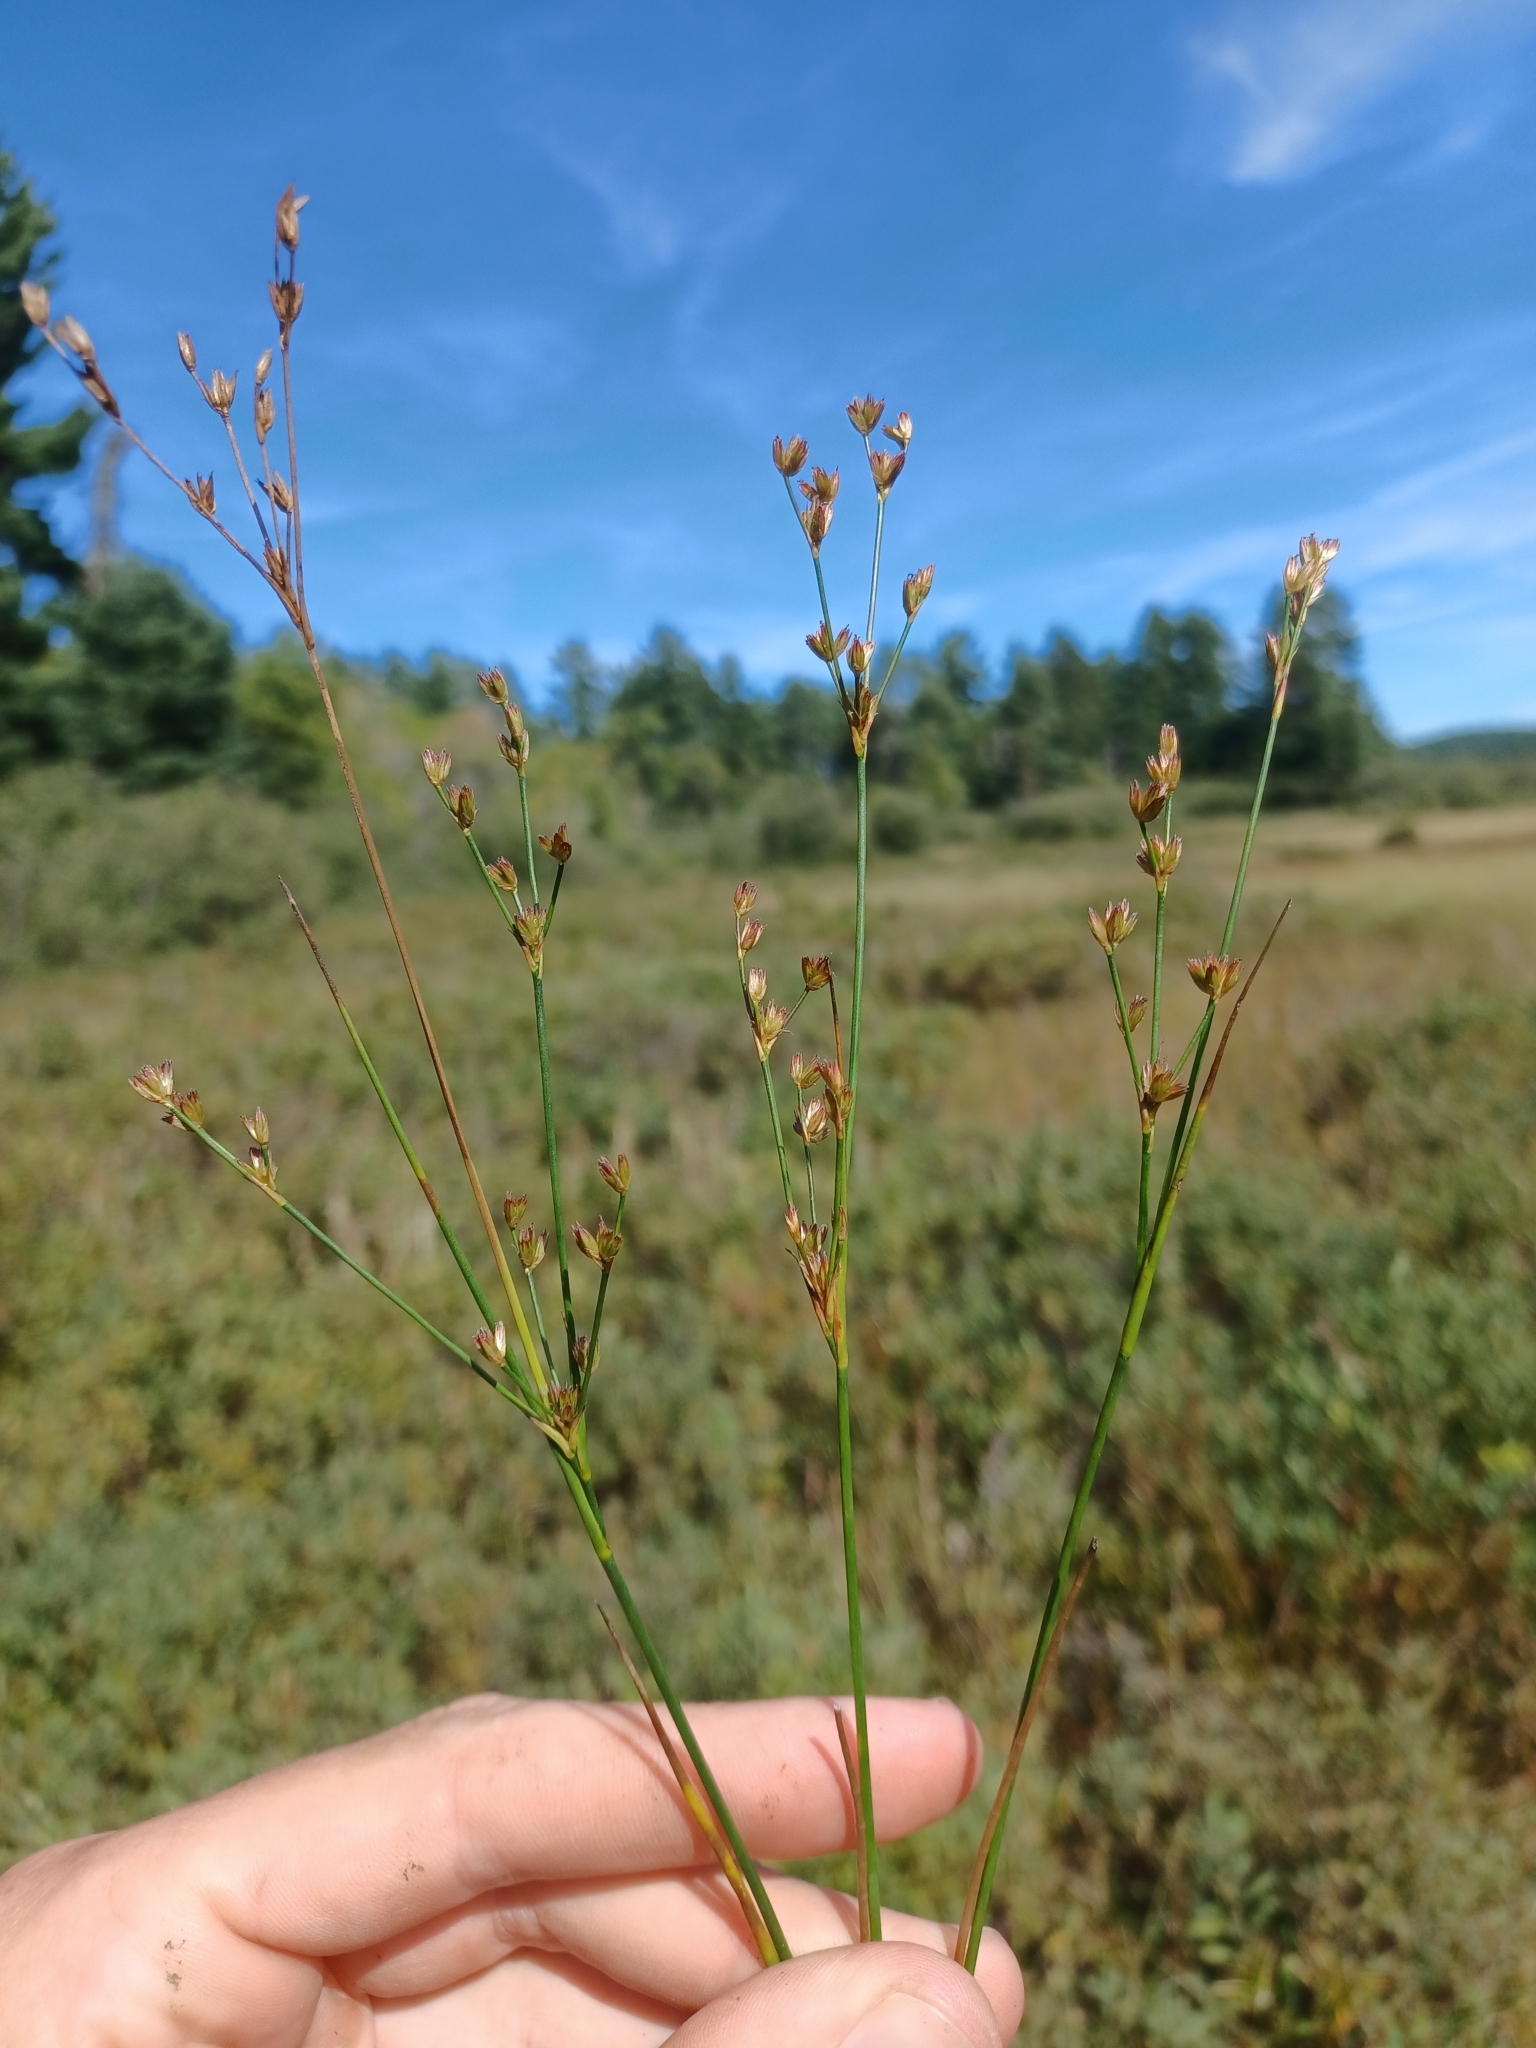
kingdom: Plantae
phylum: Tracheophyta
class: Liliopsida
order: Poales
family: Juncaceae
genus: Juncus
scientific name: Juncus tweedyi
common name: Narrow-panicled rush
